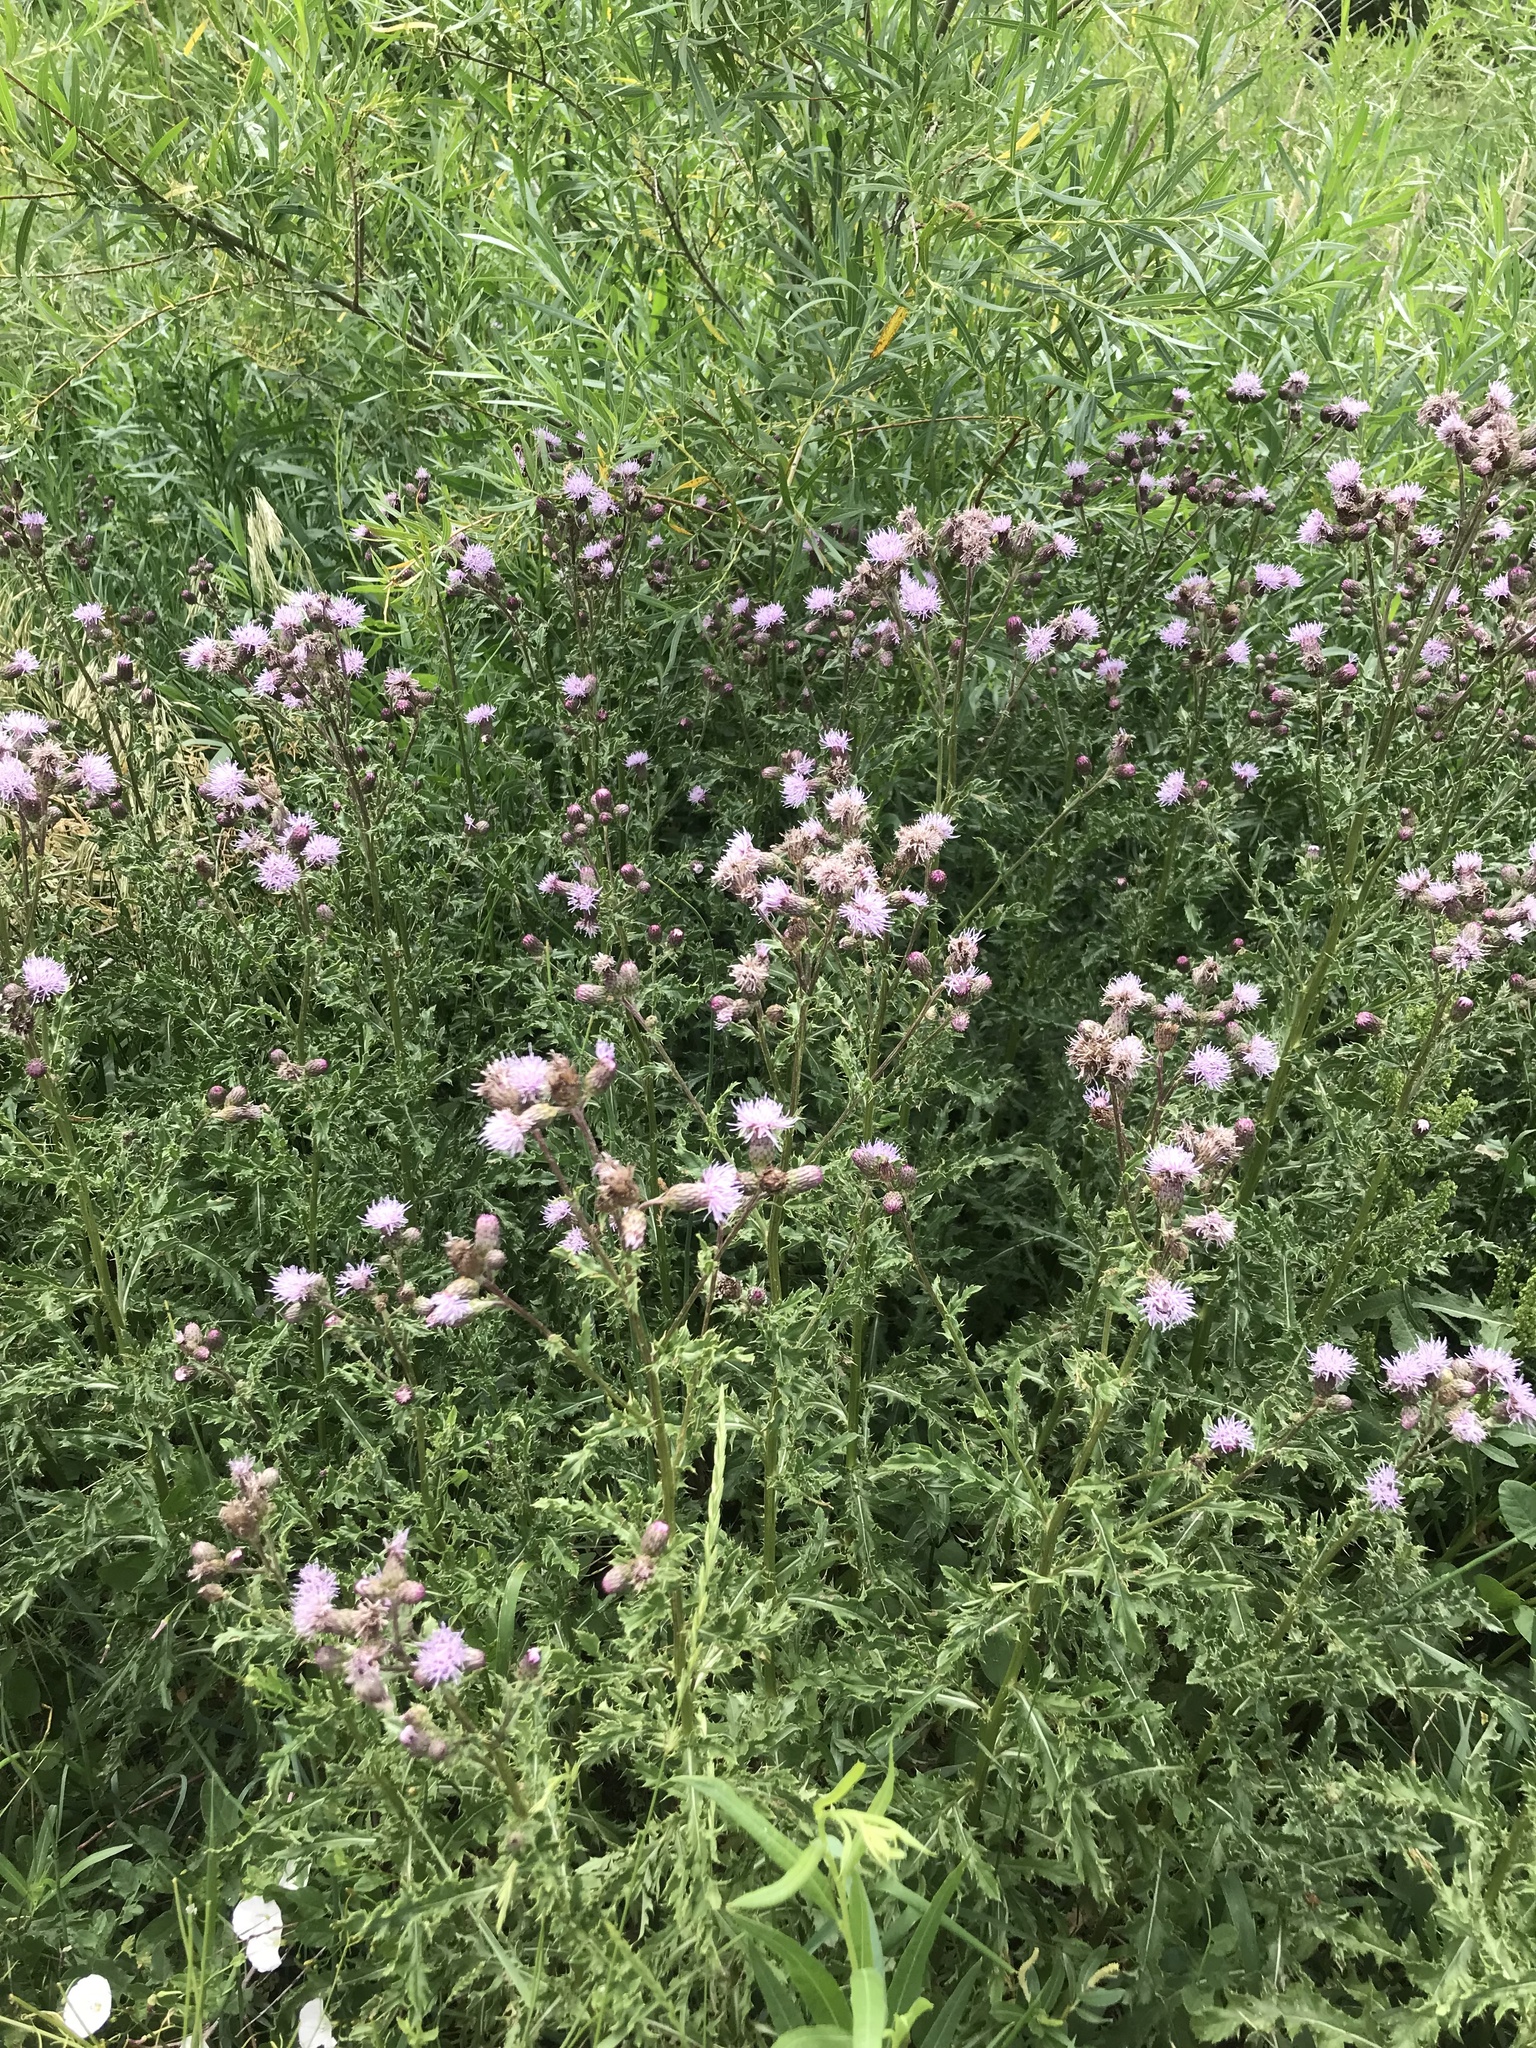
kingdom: Plantae
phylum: Tracheophyta
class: Magnoliopsida
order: Asterales
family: Asteraceae
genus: Cirsium
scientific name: Cirsium arvense
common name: Creeping thistle
